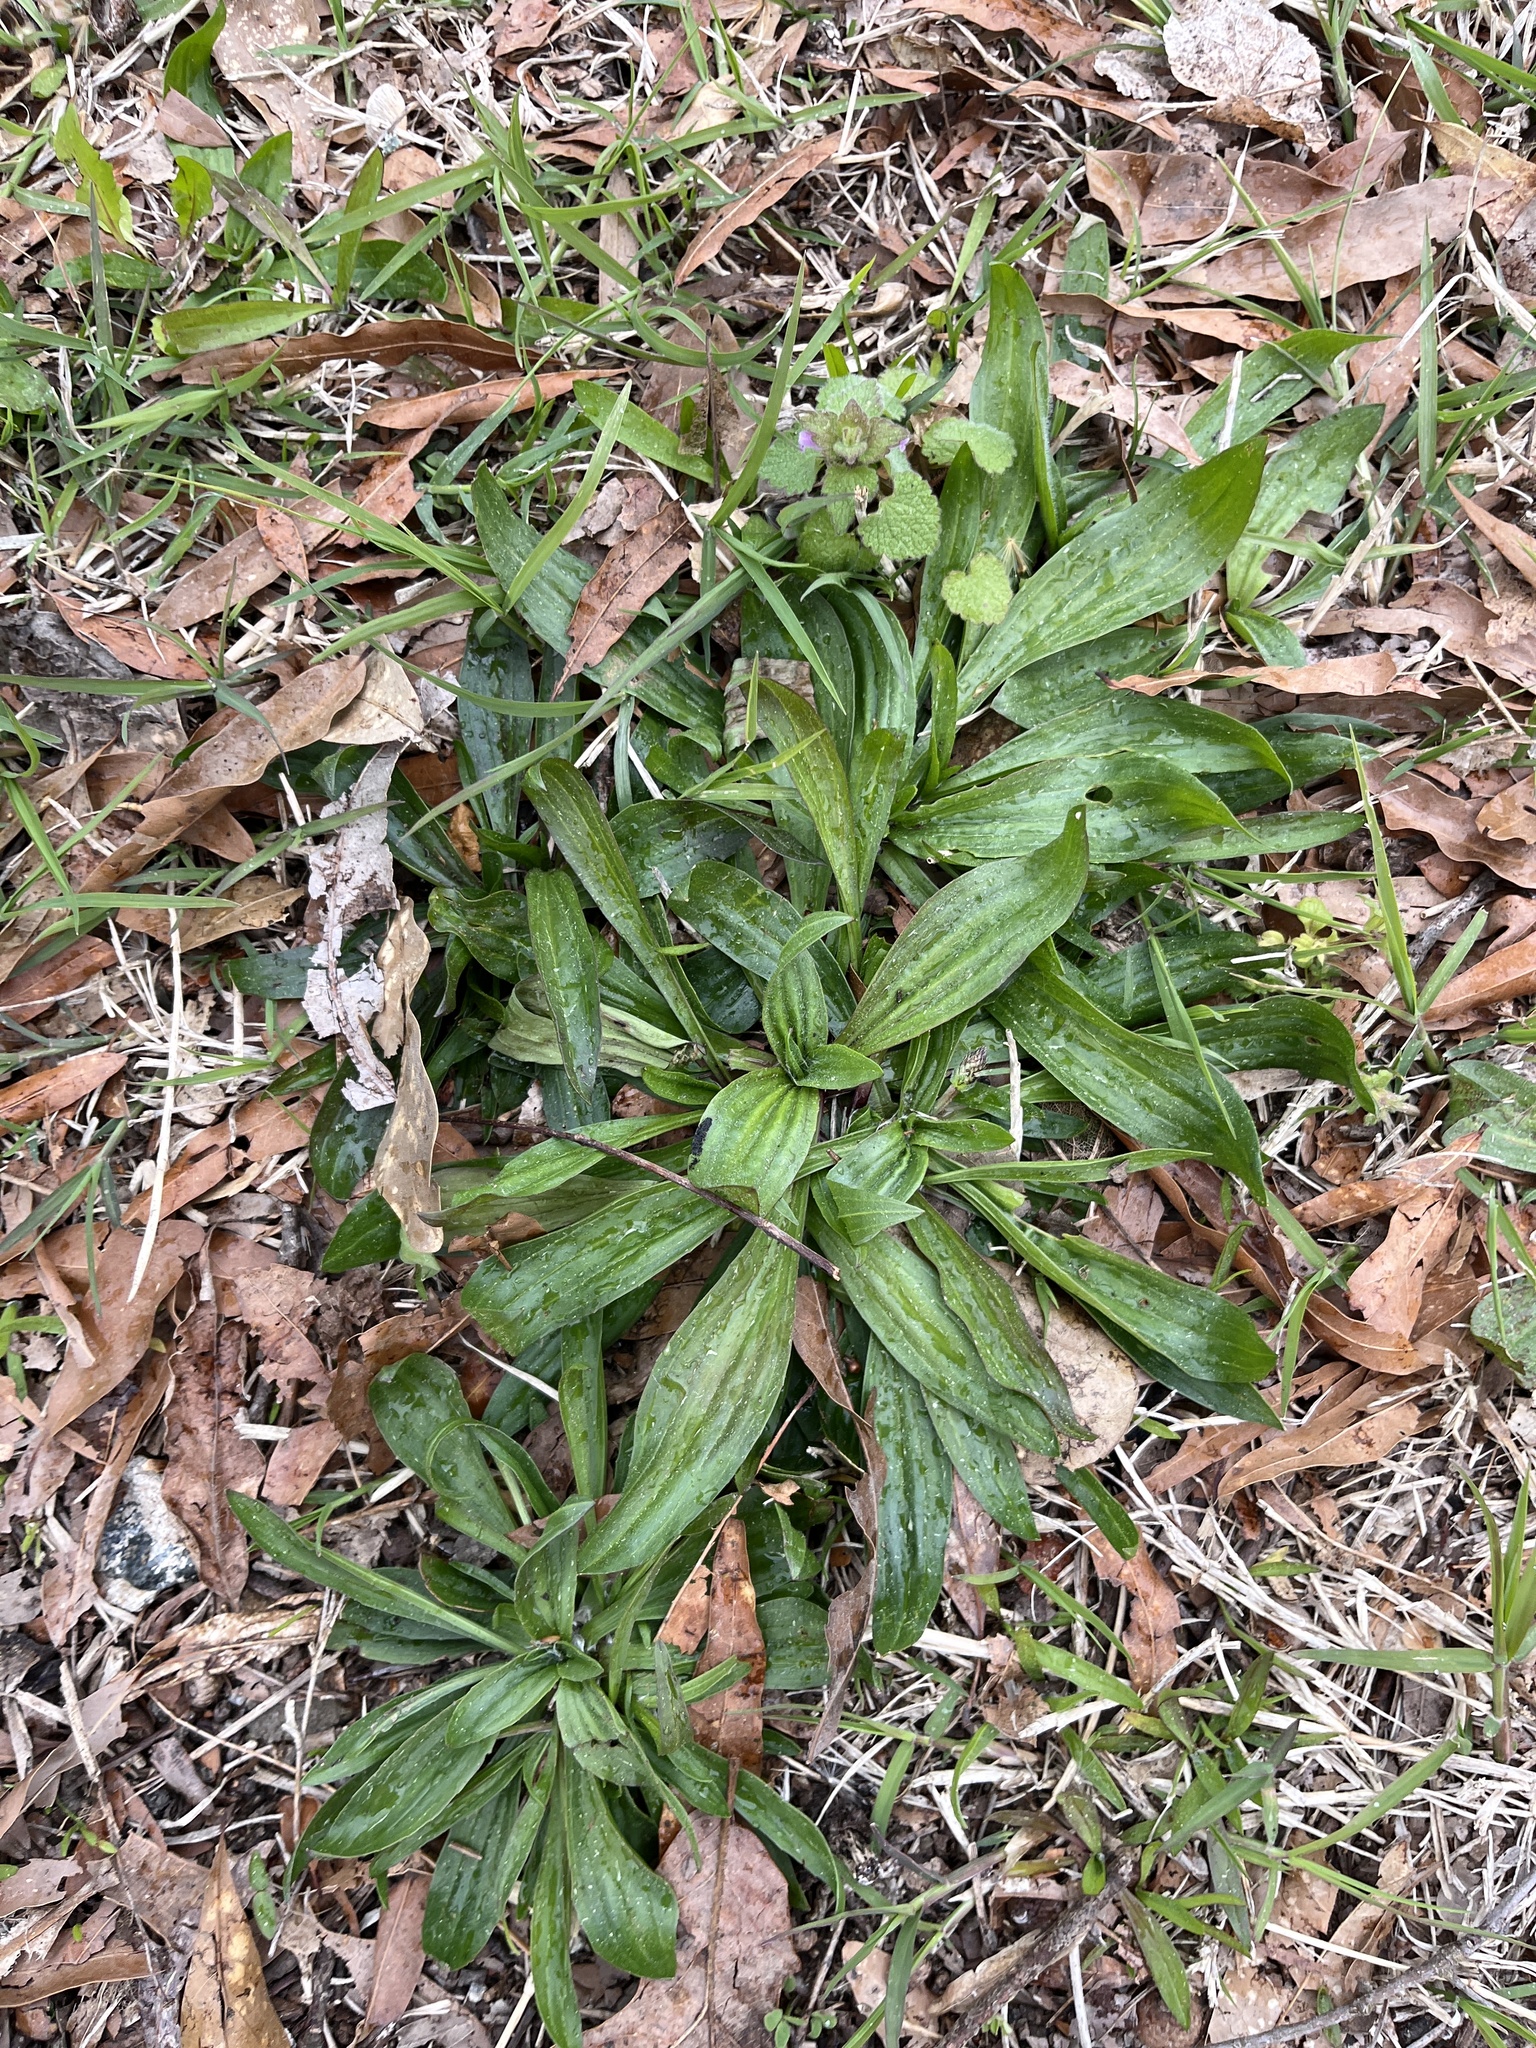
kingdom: Plantae
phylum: Tracheophyta
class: Magnoliopsida
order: Lamiales
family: Plantaginaceae
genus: Plantago
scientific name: Plantago lanceolata
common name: Ribwort plantain
